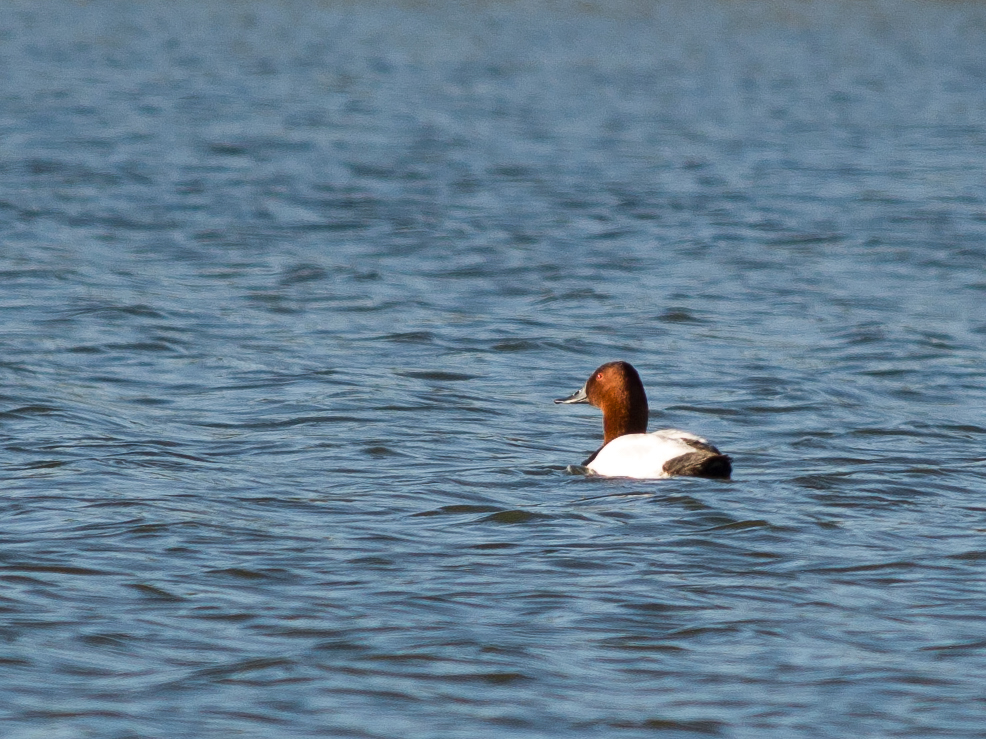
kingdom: Animalia
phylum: Chordata
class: Aves
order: Anseriformes
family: Anatidae
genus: Aythya
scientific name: Aythya valisineria
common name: Canvasback
